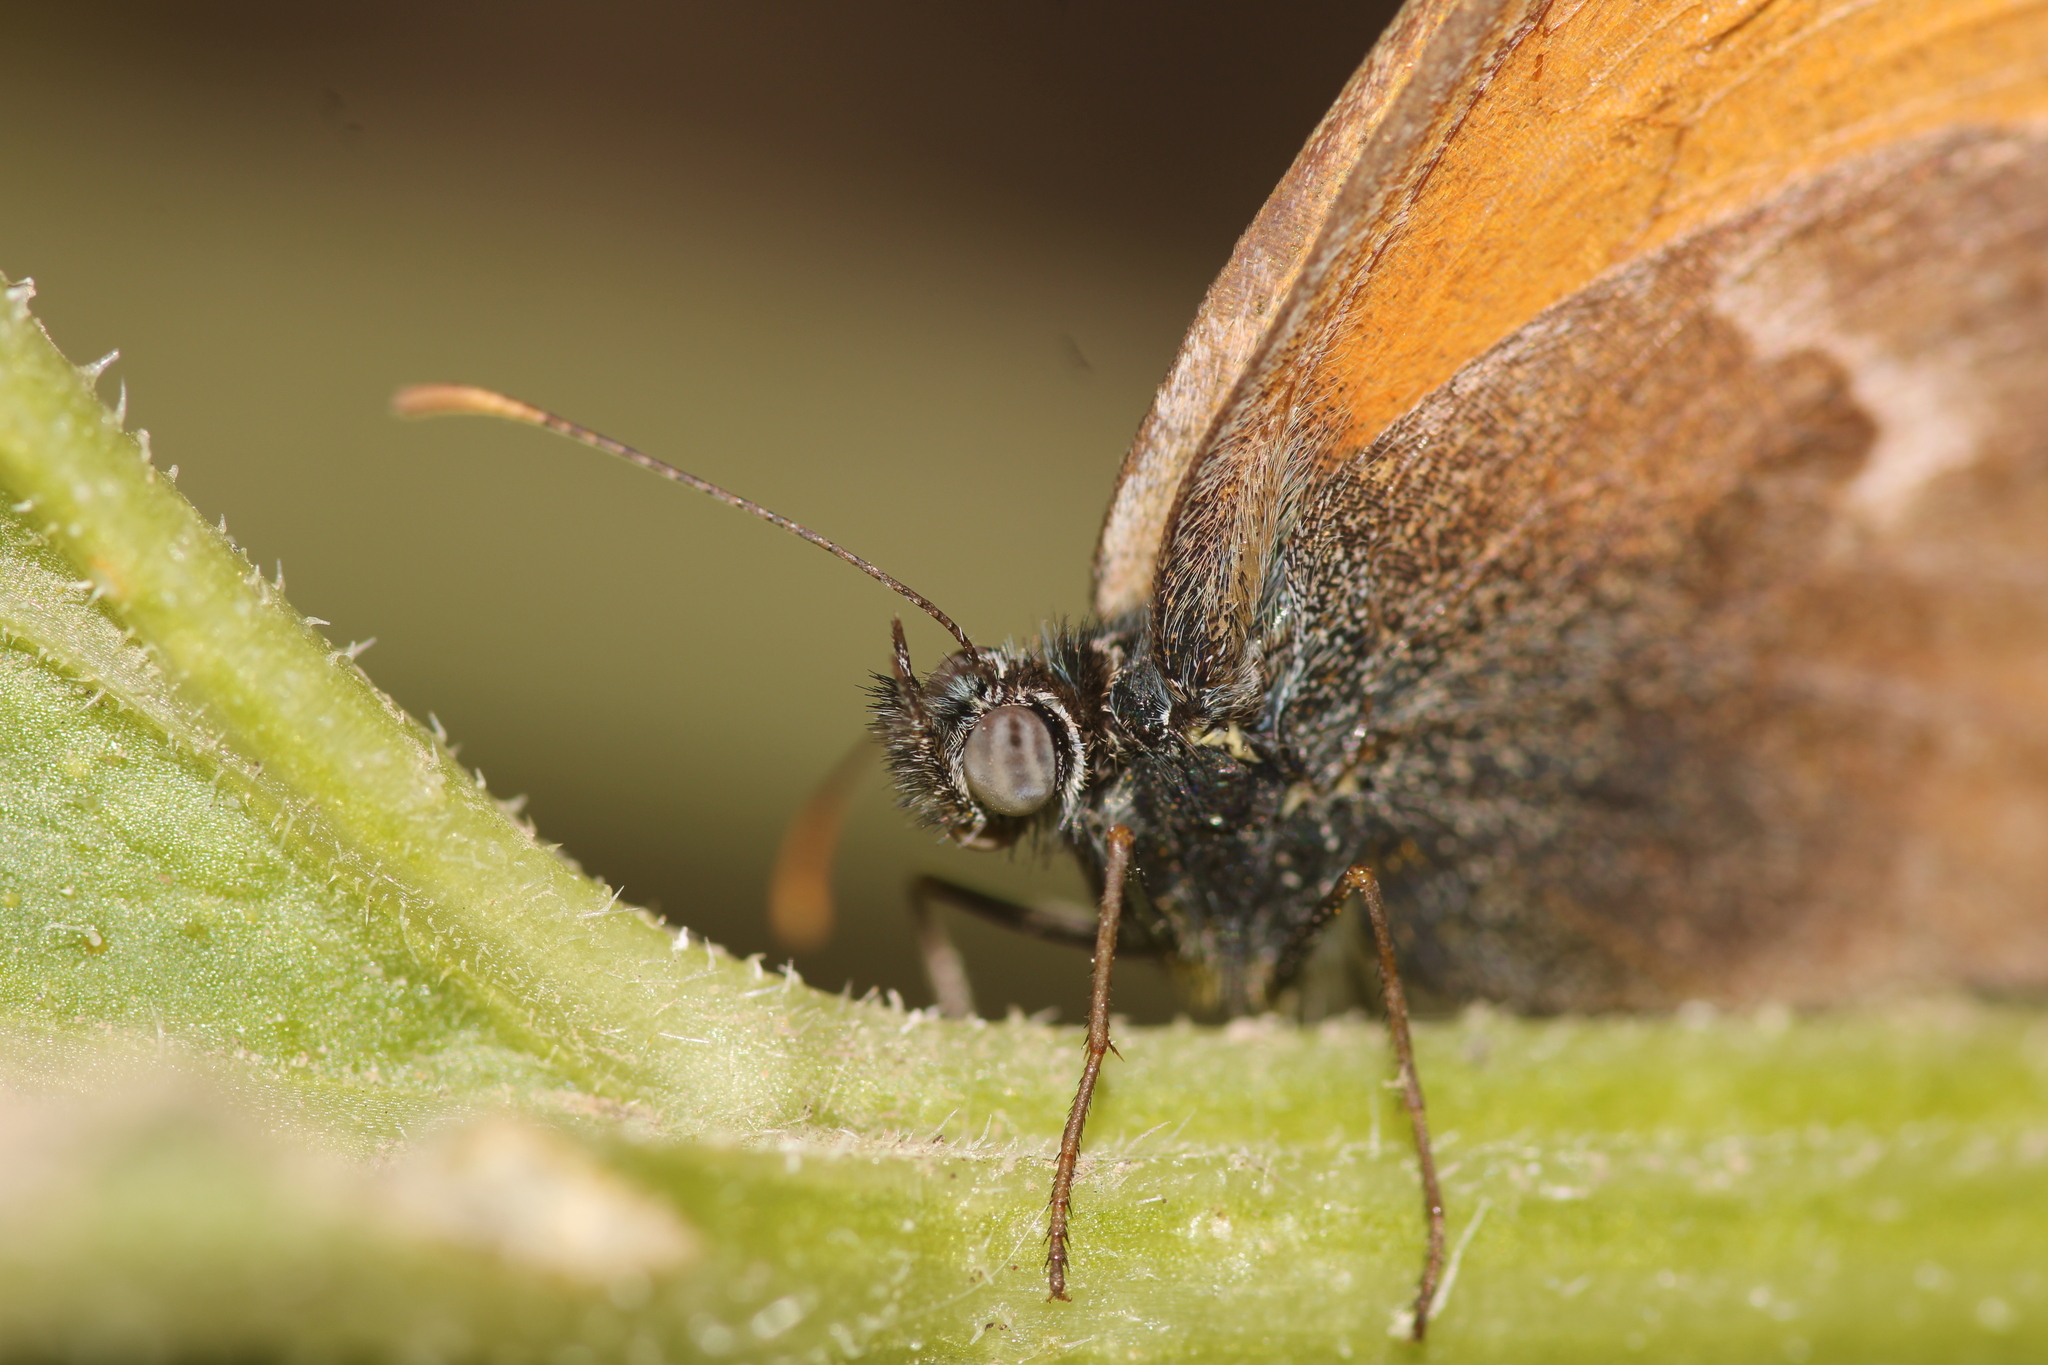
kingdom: Animalia
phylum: Arthropoda
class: Insecta
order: Lepidoptera
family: Nymphalidae
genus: Coenonympha
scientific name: Coenonympha pamphilus
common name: Small heath
